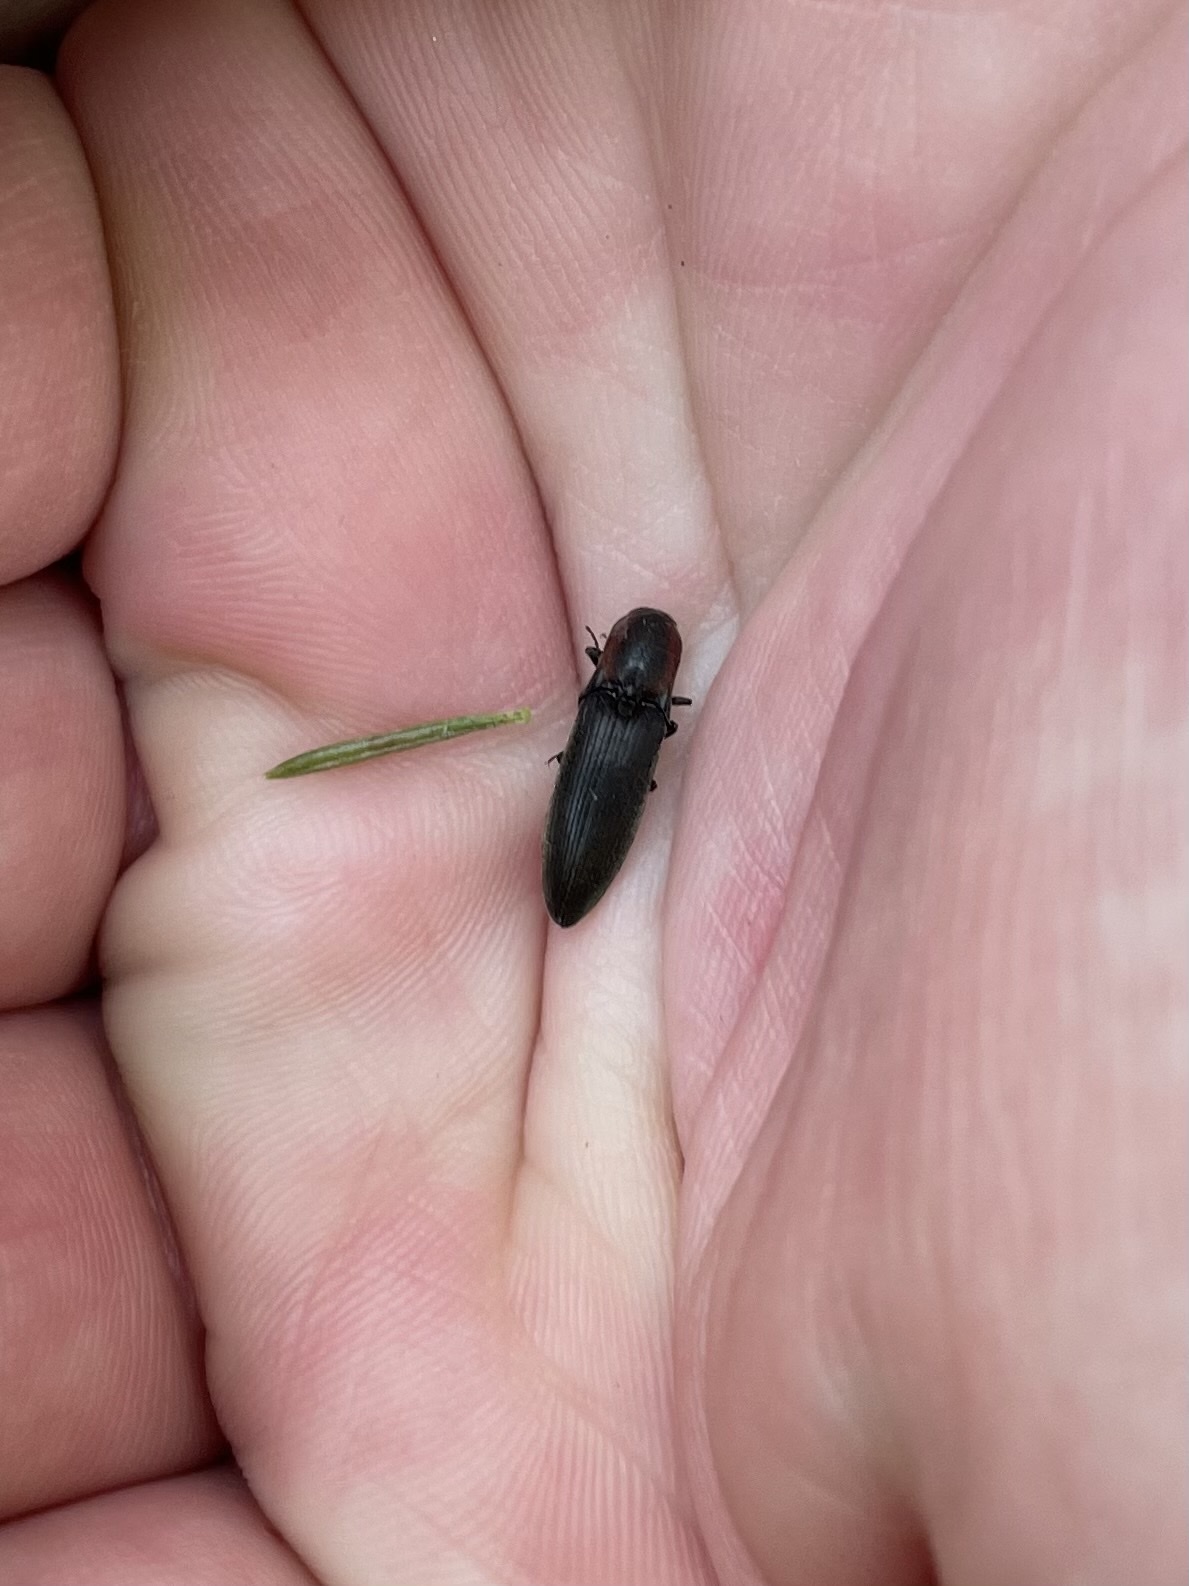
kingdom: Animalia
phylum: Arthropoda
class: Insecta
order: Coleoptera
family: Elateridae
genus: Agriotes
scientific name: Agriotes fucosus
